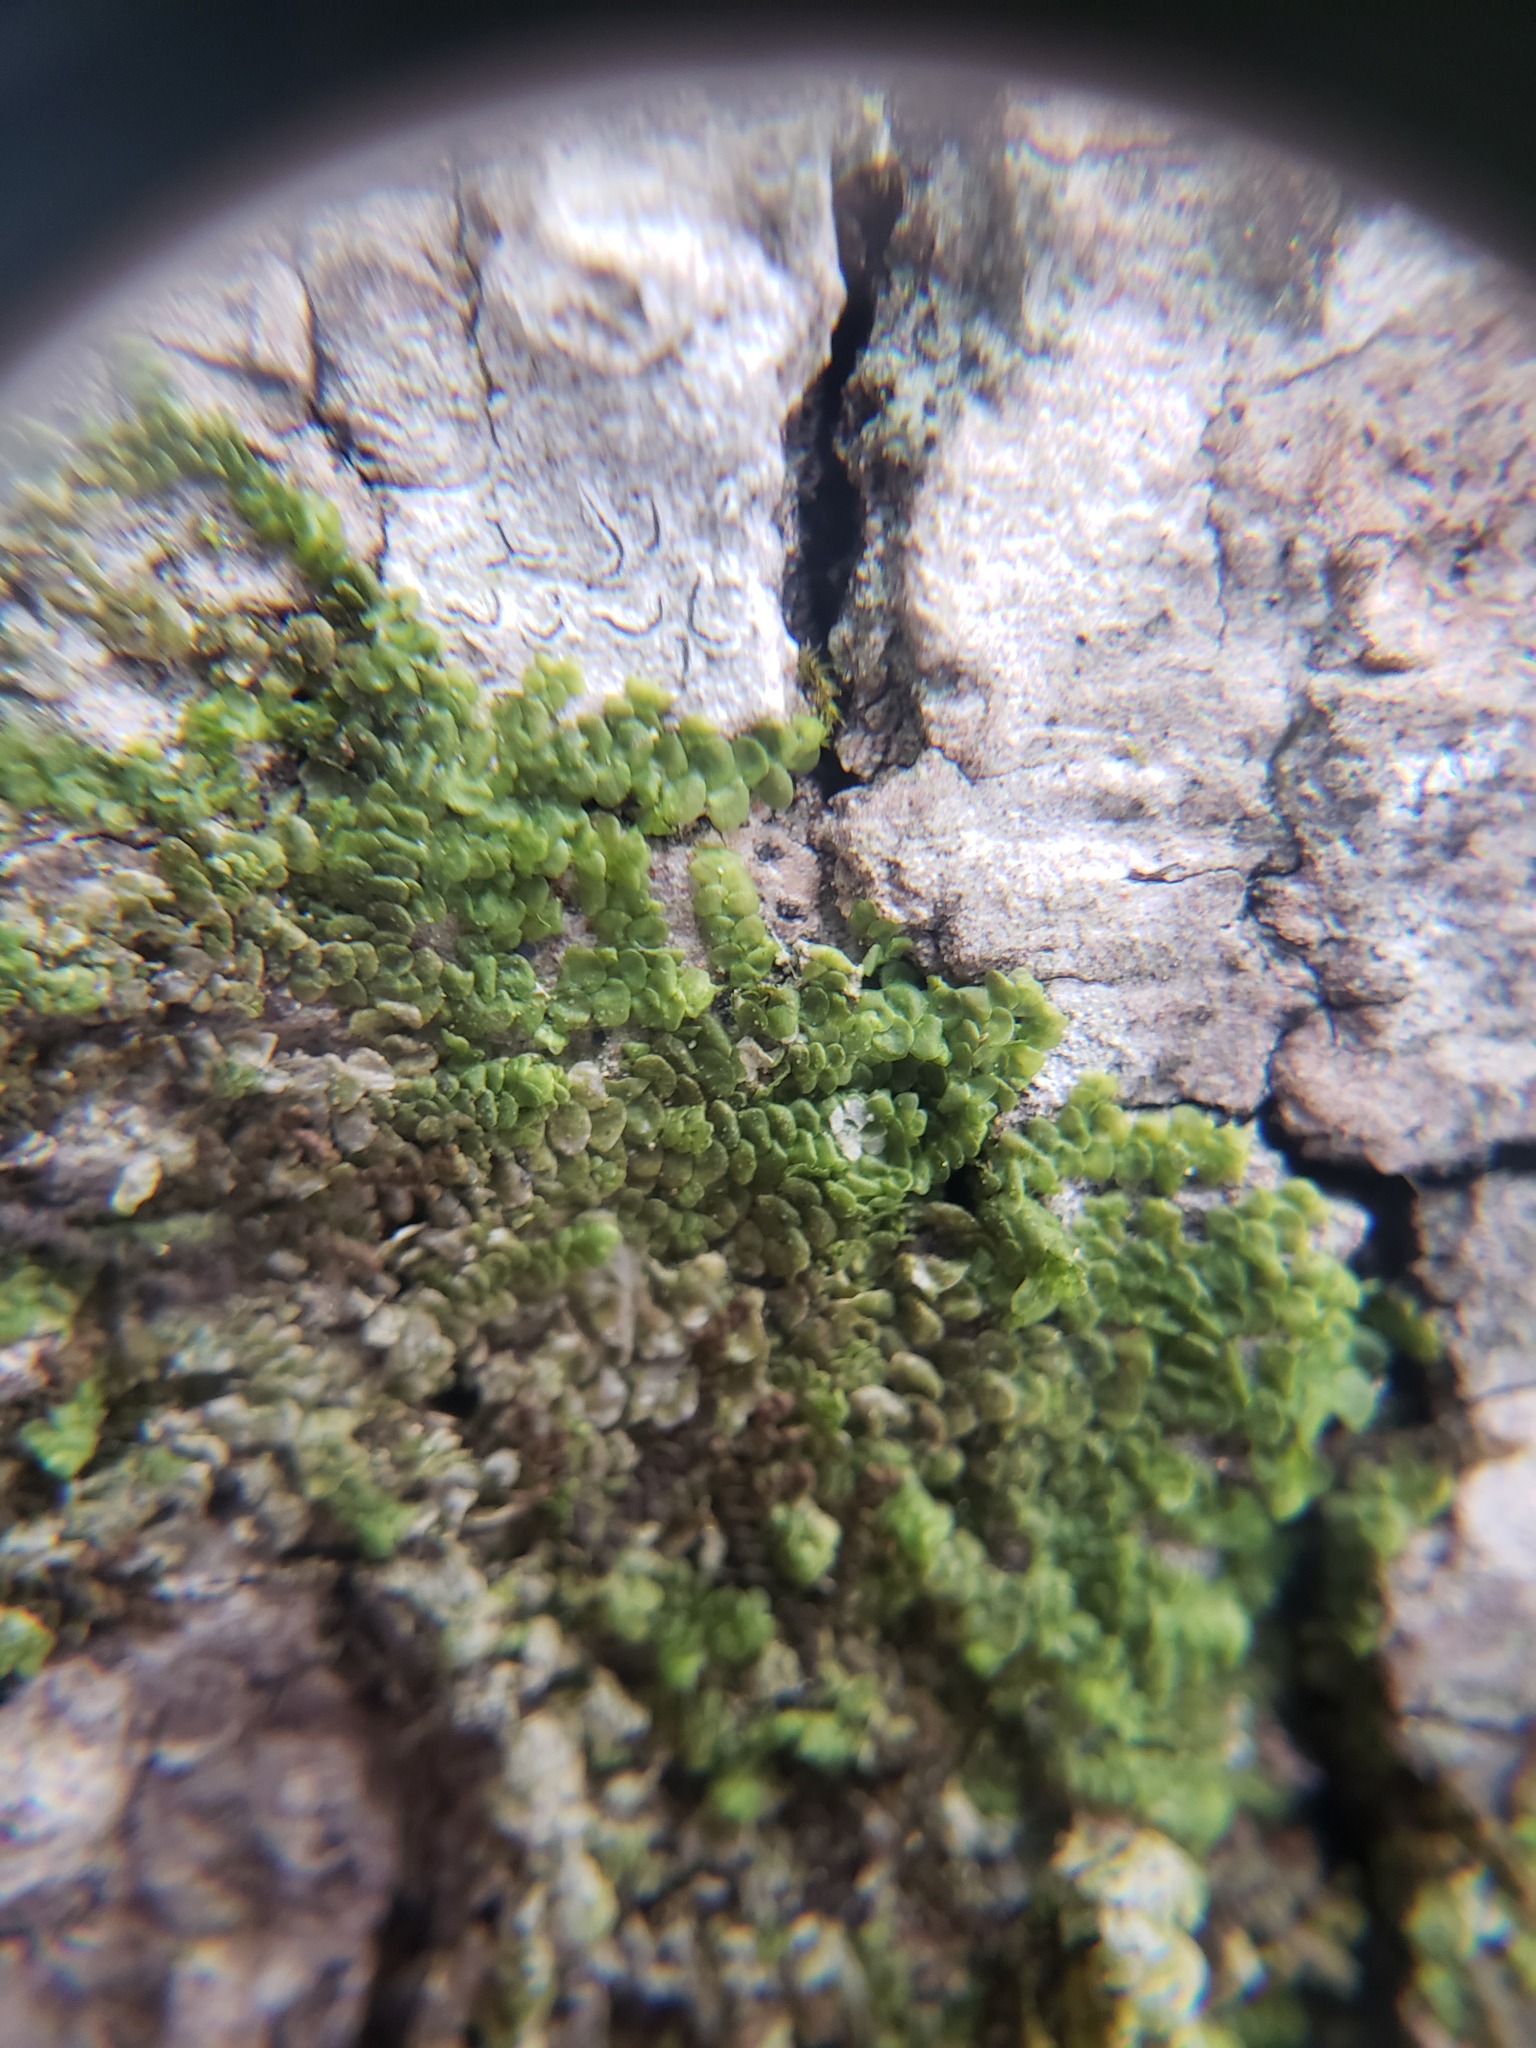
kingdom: Plantae
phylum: Marchantiophyta
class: Jungermanniopsida
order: Porellales
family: Radulaceae
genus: Radula
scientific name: Radula complanata
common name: Flat-leaved scalewort
